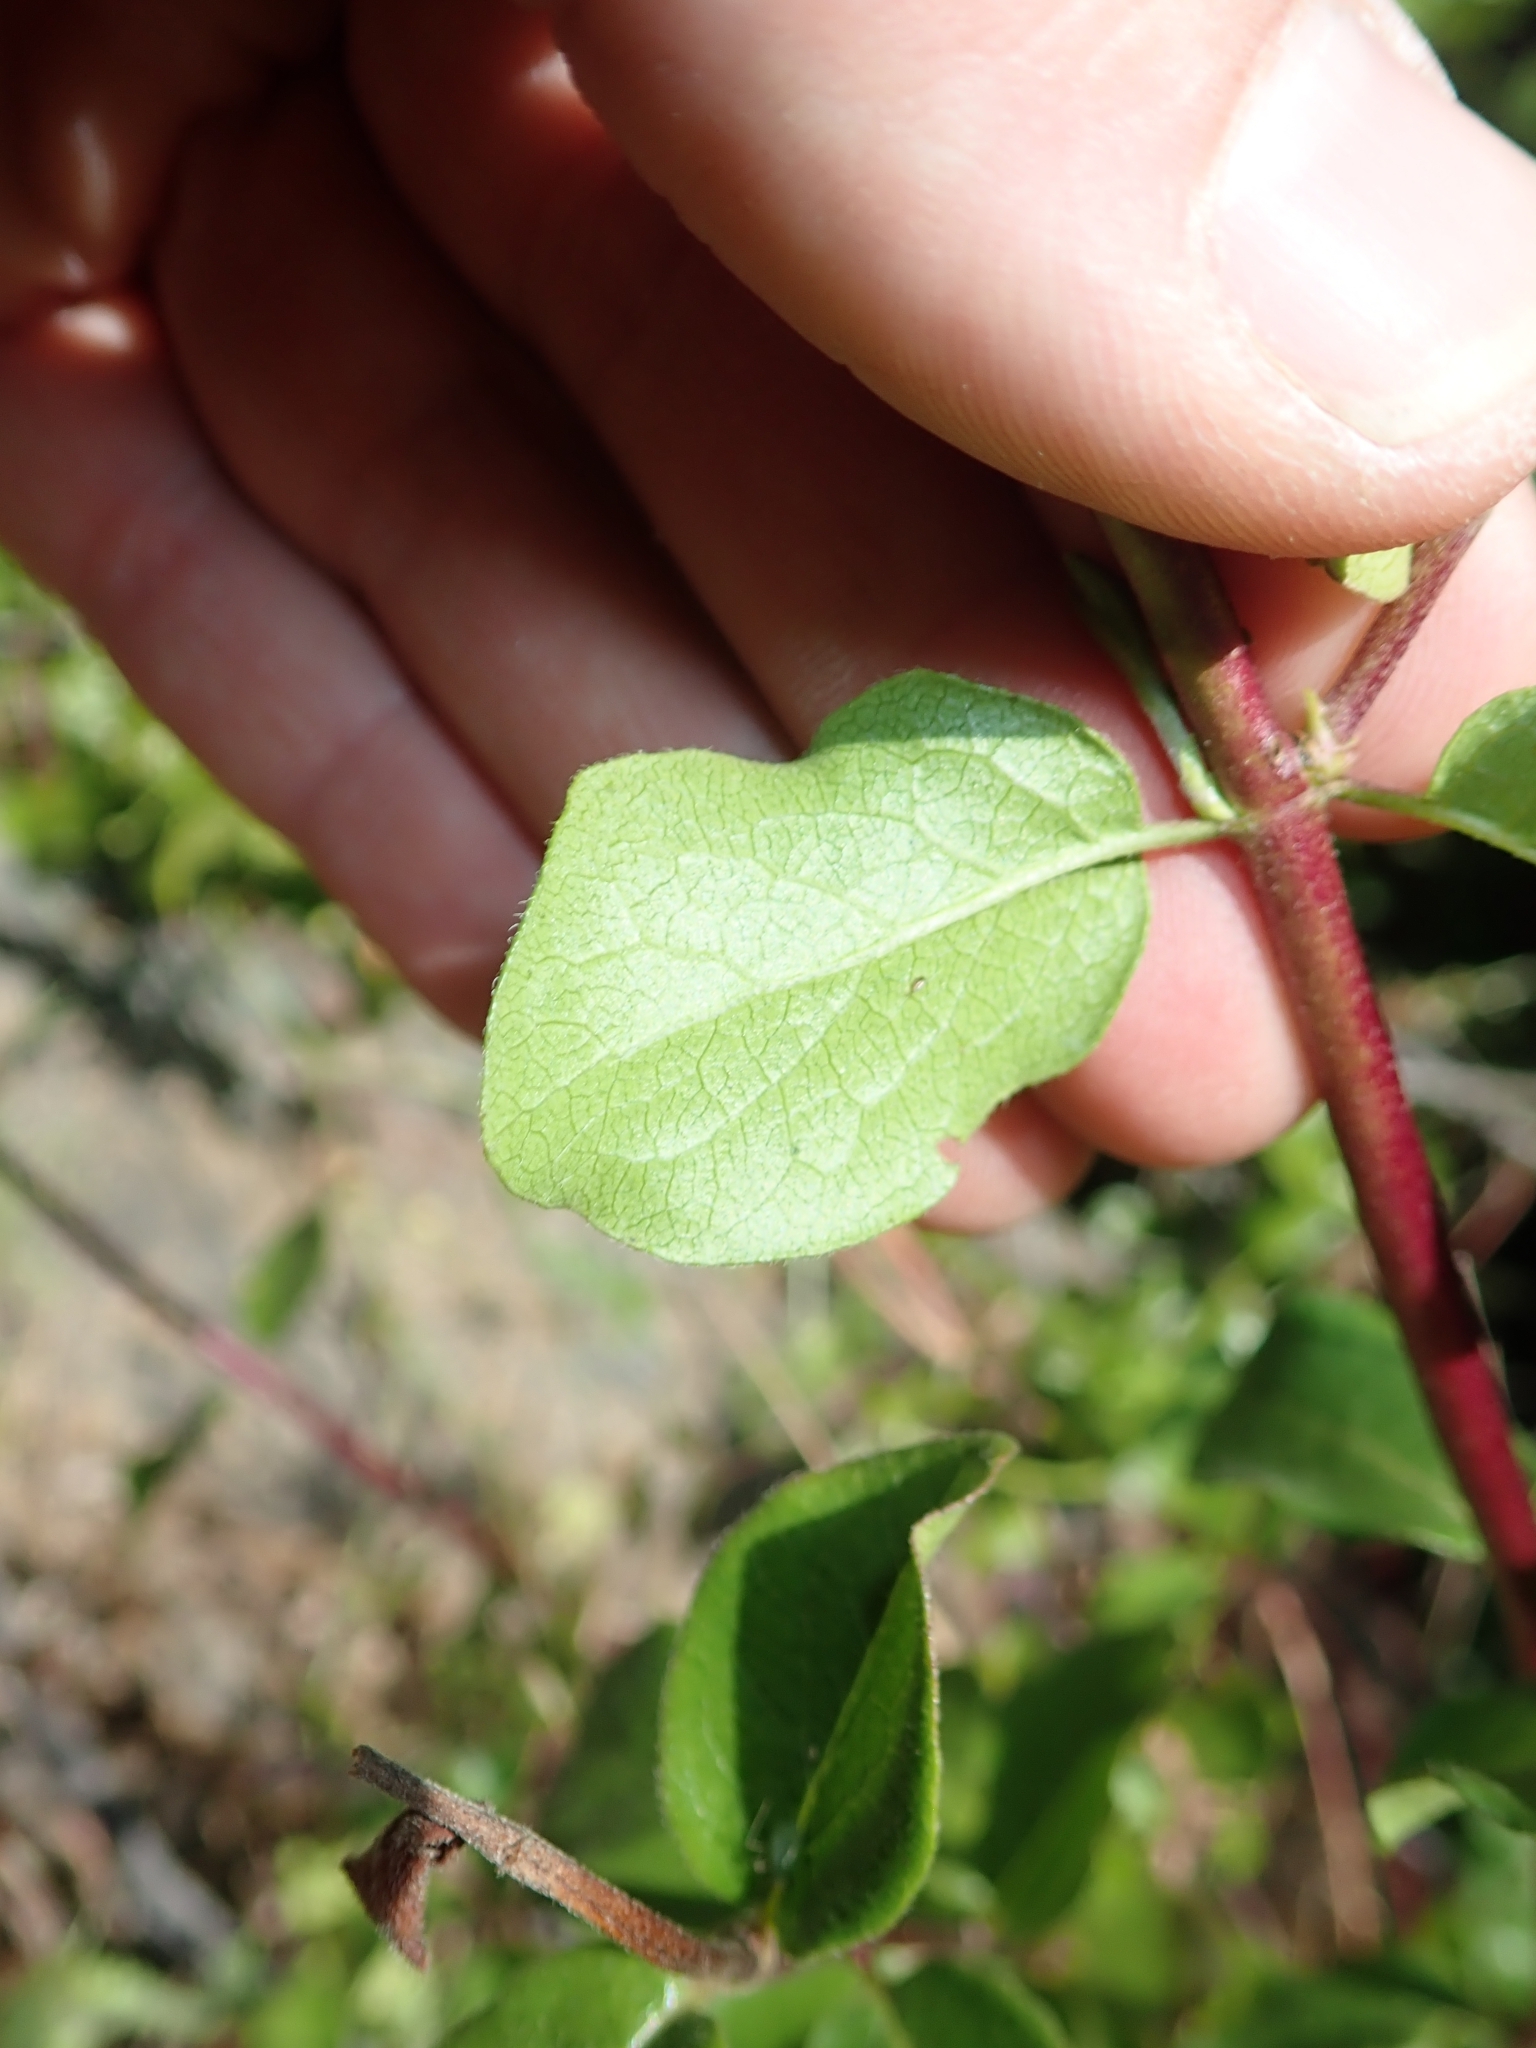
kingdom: Plantae
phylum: Tracheophyta
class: Magnoliopsida
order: Dipsacales
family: Caprifoliaceae
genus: Lonicera
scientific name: Lonicera subspicata
